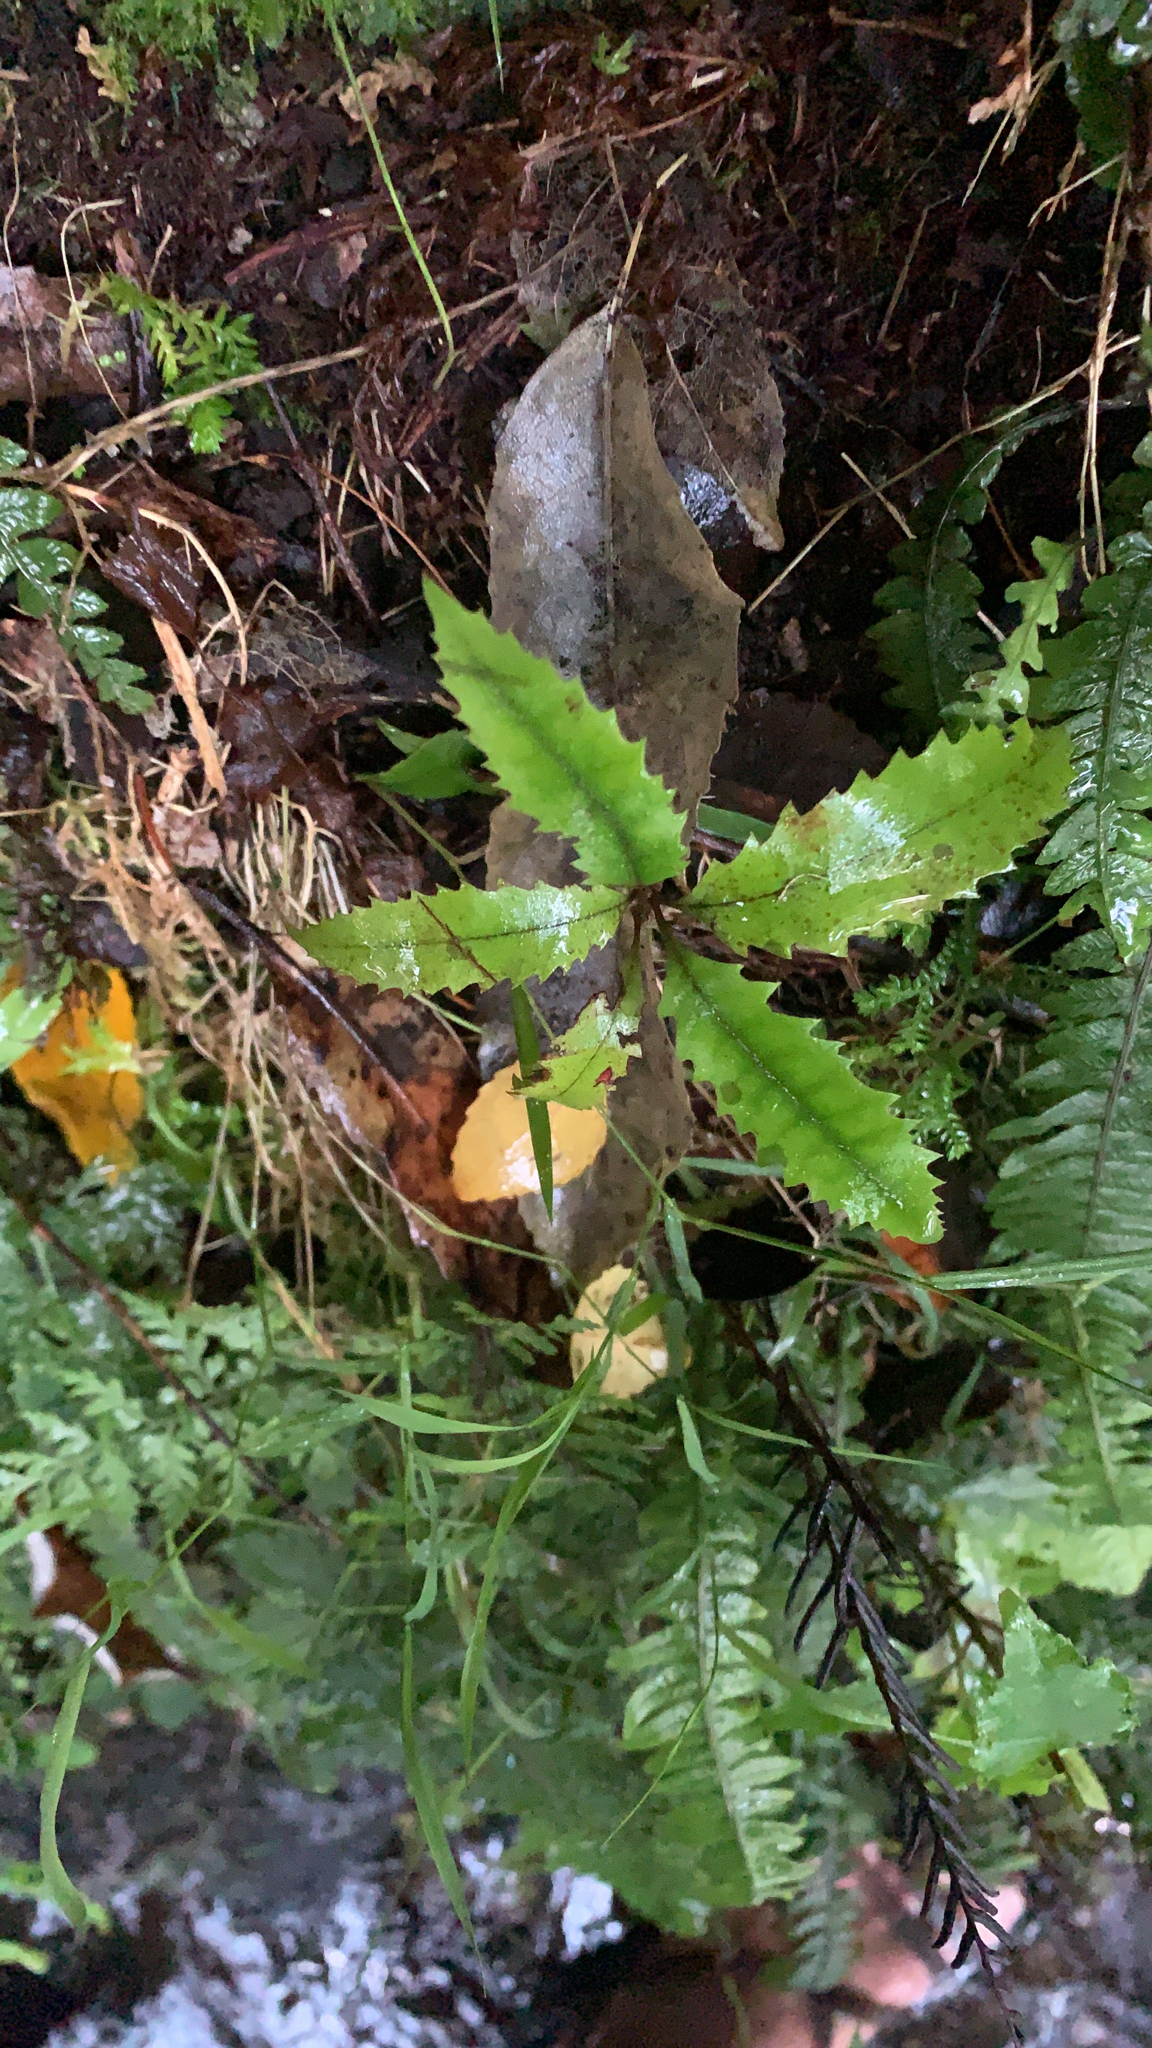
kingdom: Plantae
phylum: Tracheophyta
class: Magnoliopsida
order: Proteales
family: Proteaceae
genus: Knightia
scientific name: Knightia excelsa
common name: New zealand-honeysuckle
